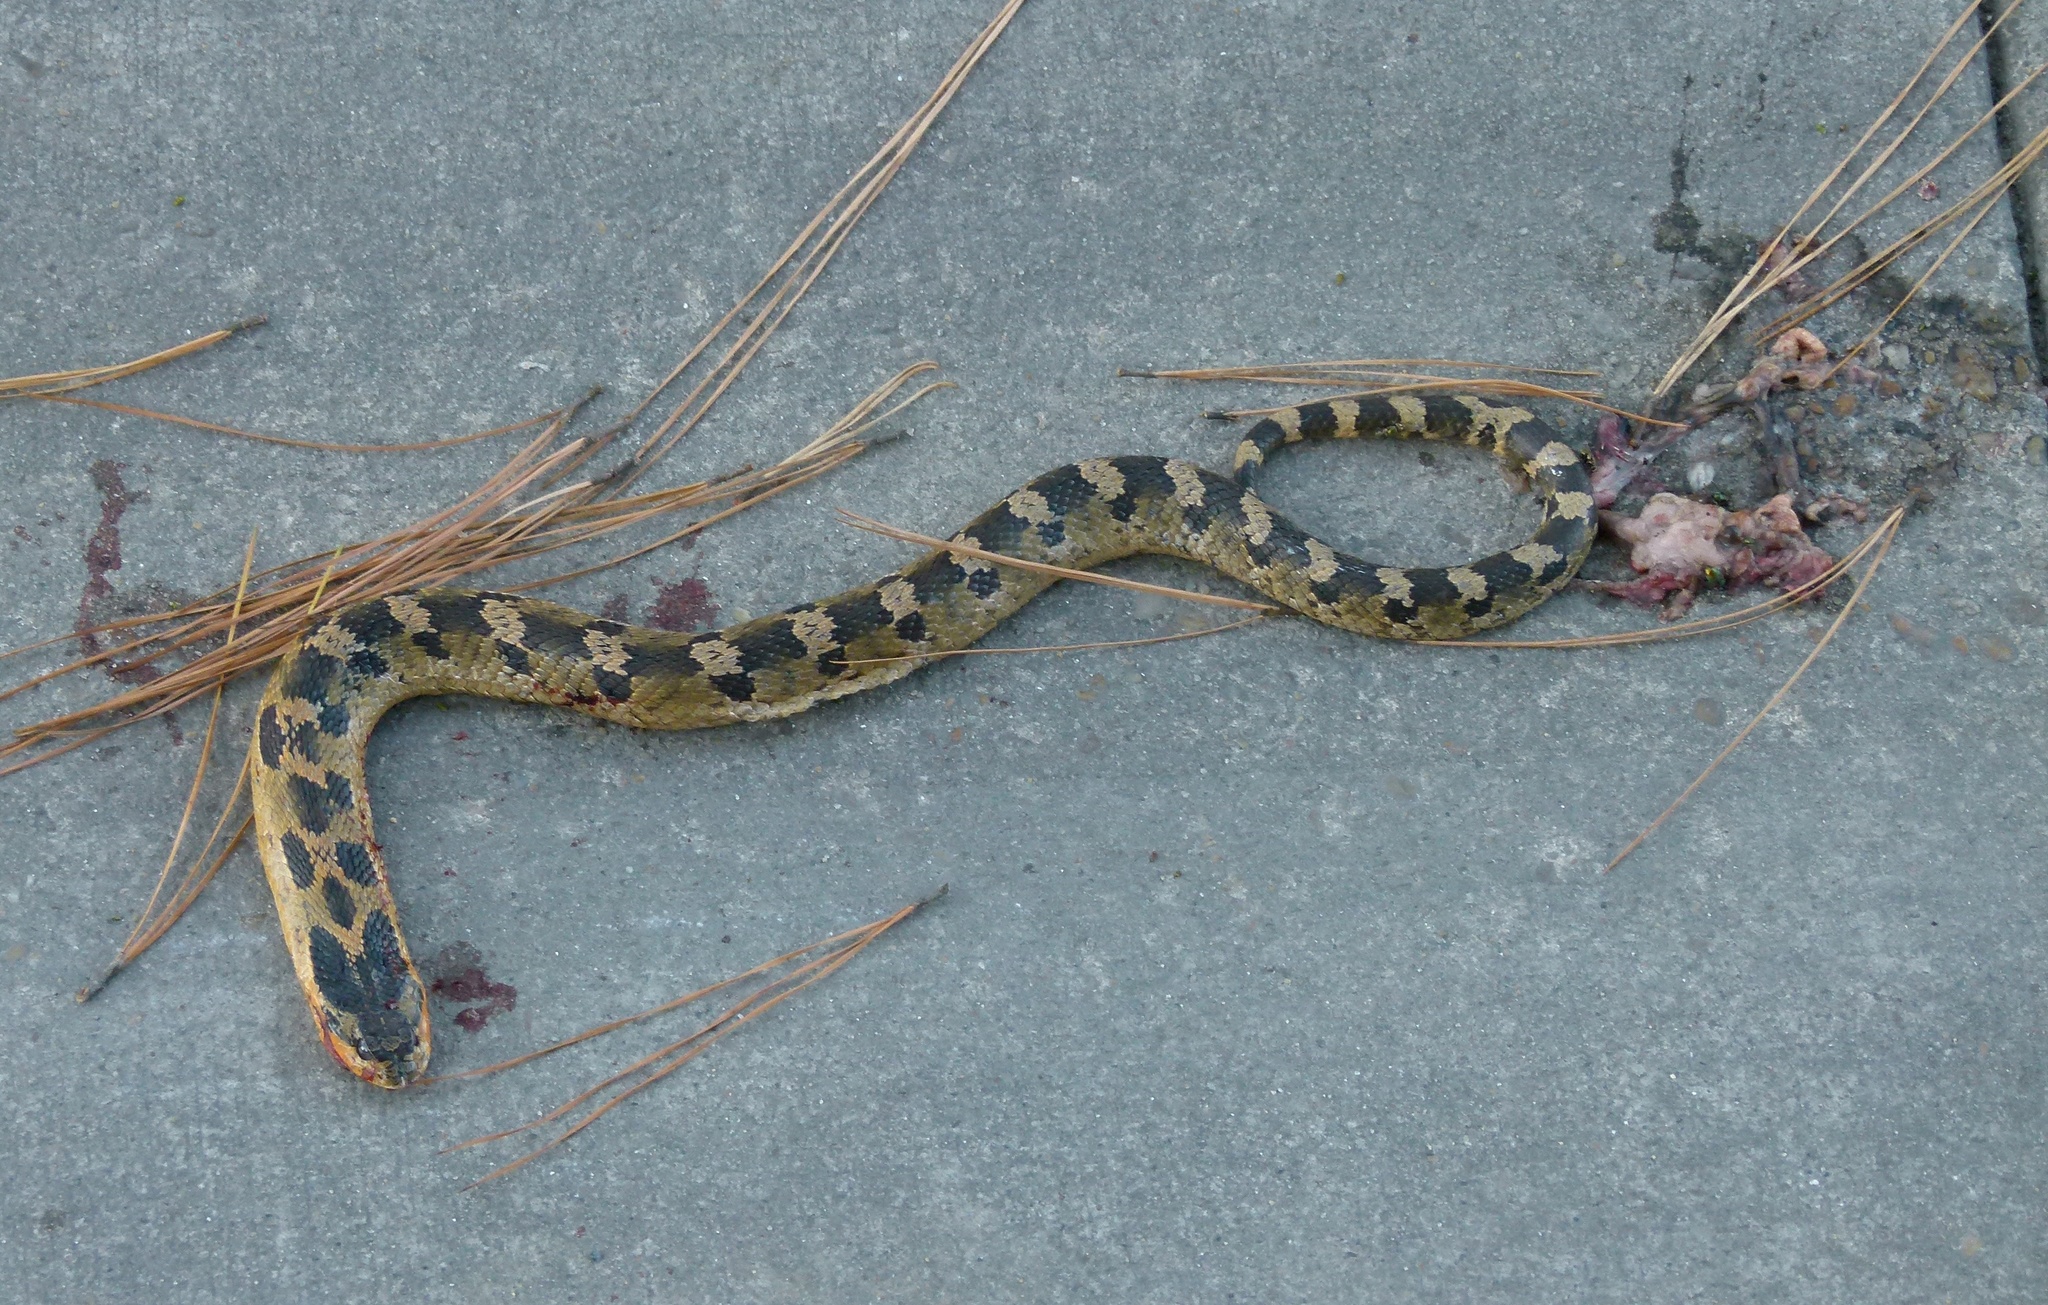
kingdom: Animalia
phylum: Chordata
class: Squamata
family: Colubridae
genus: Heterodon
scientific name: Heterodon platirhinos
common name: Eastern hognose snake
